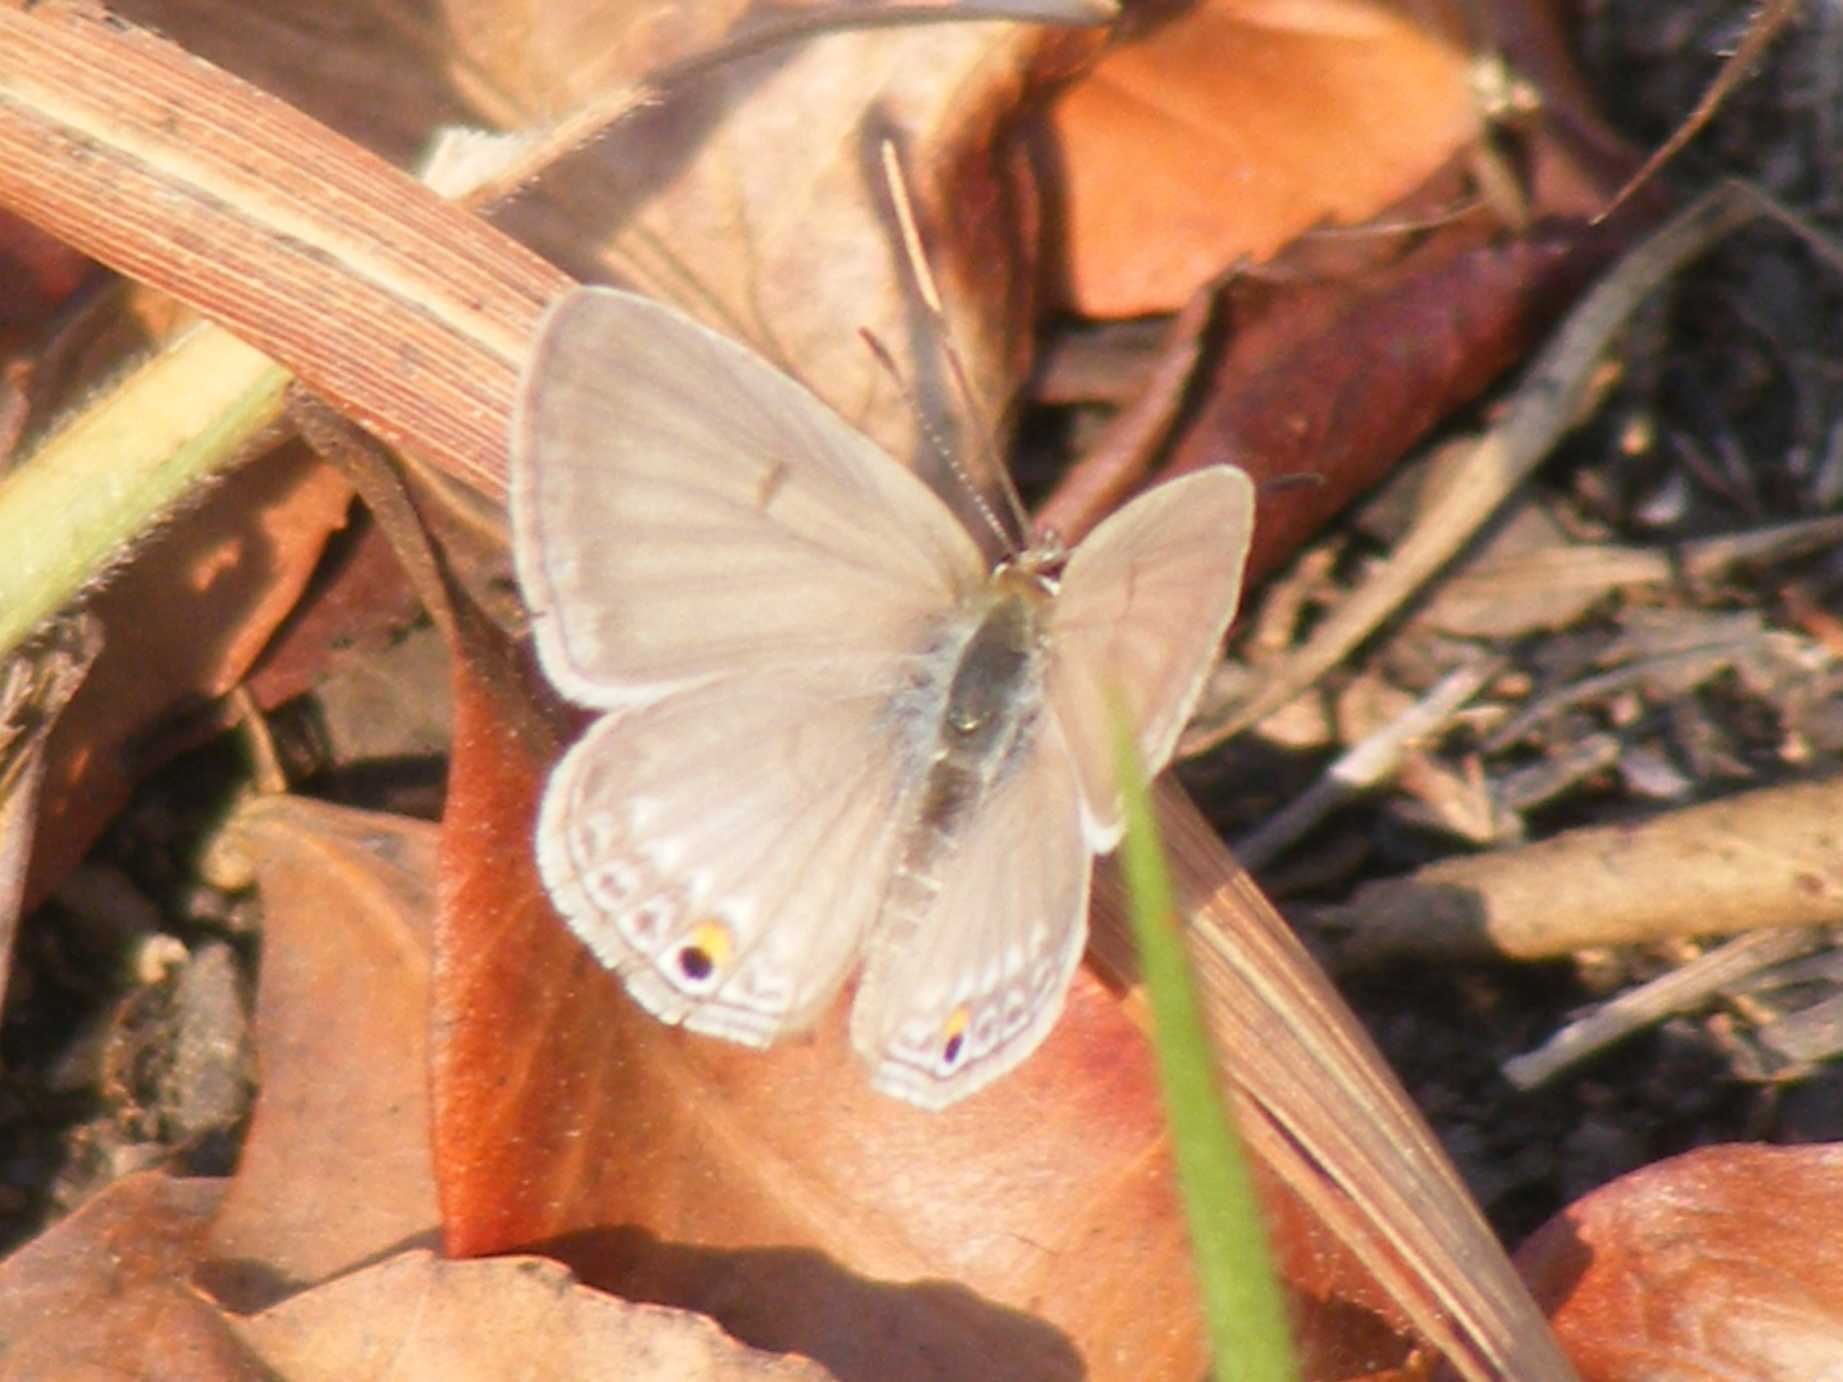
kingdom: Animalia
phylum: Arthropoda
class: Insecta
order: Lepidoptera
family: Lycaenidae
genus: Euchrysops
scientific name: Euchrysops malathana
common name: Common smoky blue
